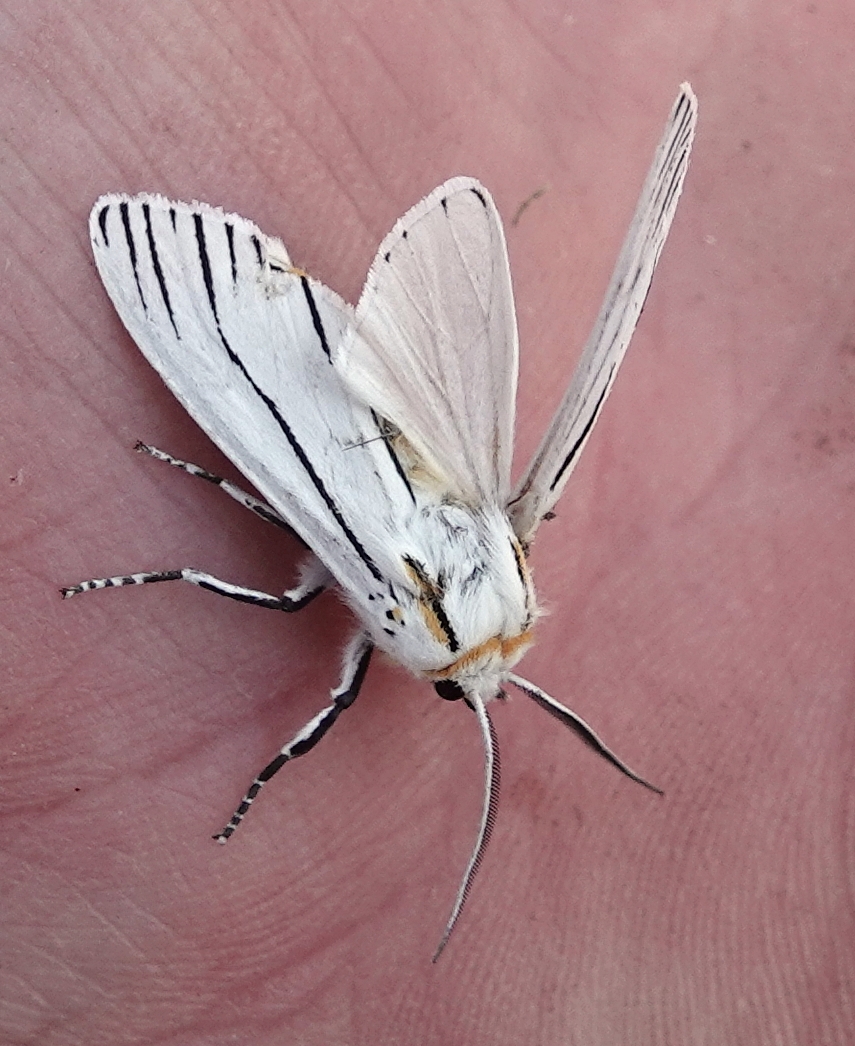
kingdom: Animalia
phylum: Arthropoda
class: Insecta
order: Lepidoptera
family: Erebidae
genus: Ectypia
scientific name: Ectypia clio
